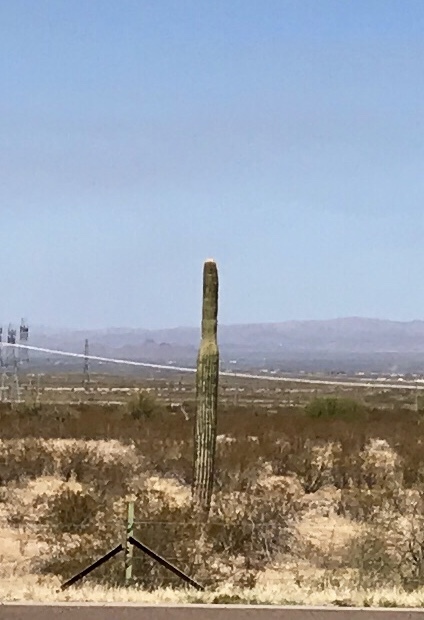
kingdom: Plantae
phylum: Tracheophyta
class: Magnoliopsida
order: Caryophyllales
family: Cactaceae
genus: Carnegiea
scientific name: Carnegiea gigantea
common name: Saguaro
